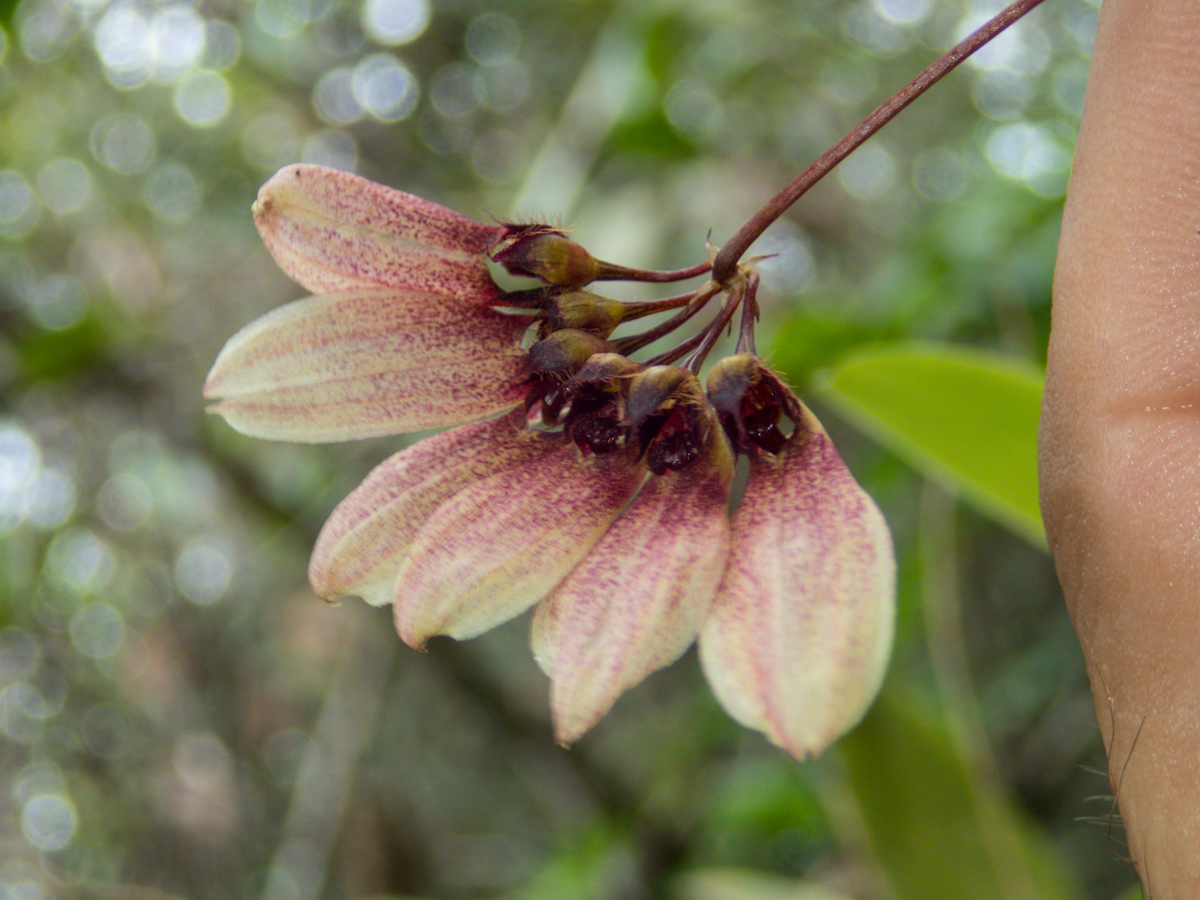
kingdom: Plantae
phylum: Tracheophyta
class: Liliopsida
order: Asparagales
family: Orchidaceae
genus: Bulbophyllum
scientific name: Bulbophyllum lepidum
